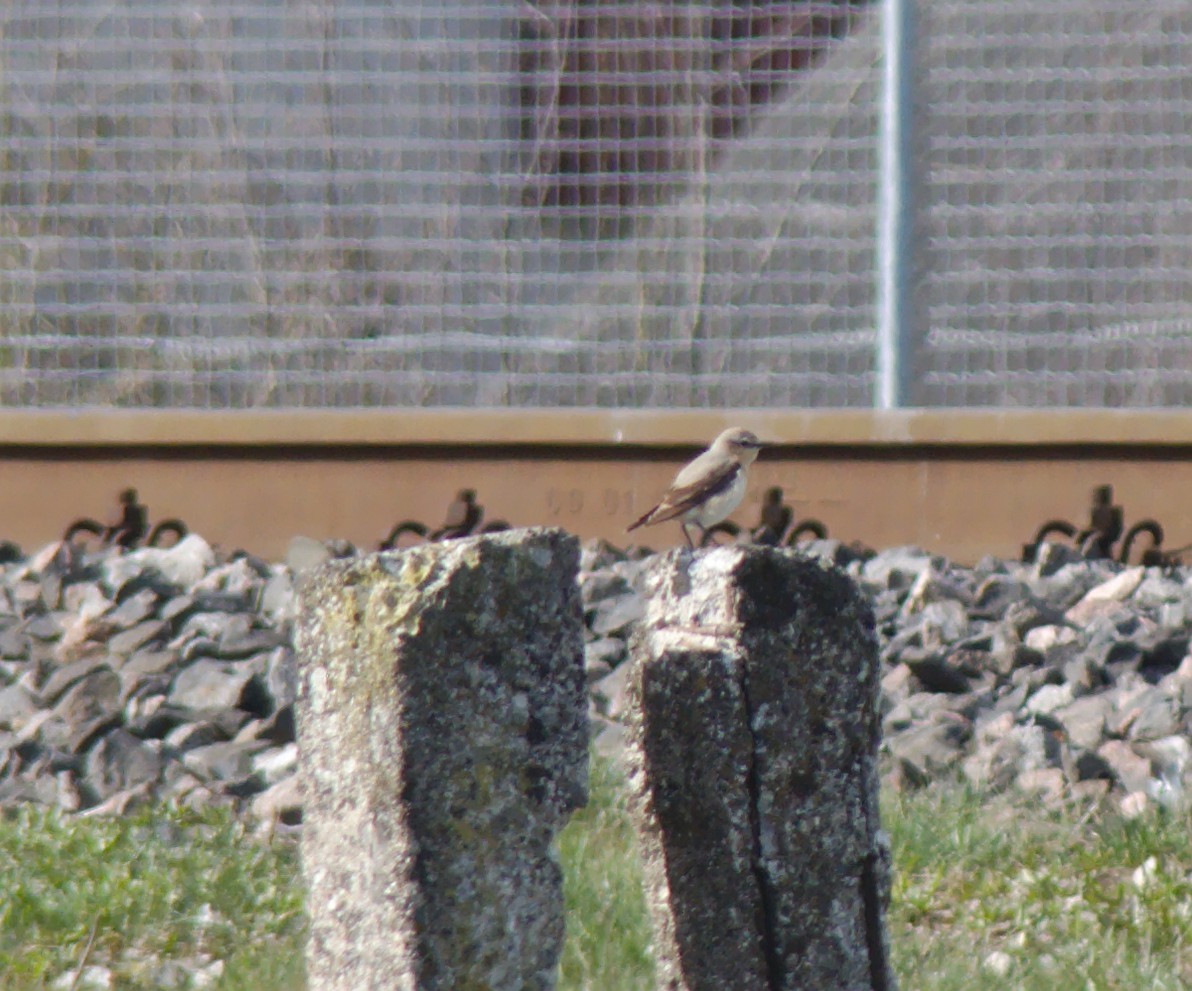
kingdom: Animalia
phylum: Chordata
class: Aves
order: Passeriformes
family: Muscicapidae
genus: Oenanthe
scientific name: Oenanthe oenanthe
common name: Northern wheatear
